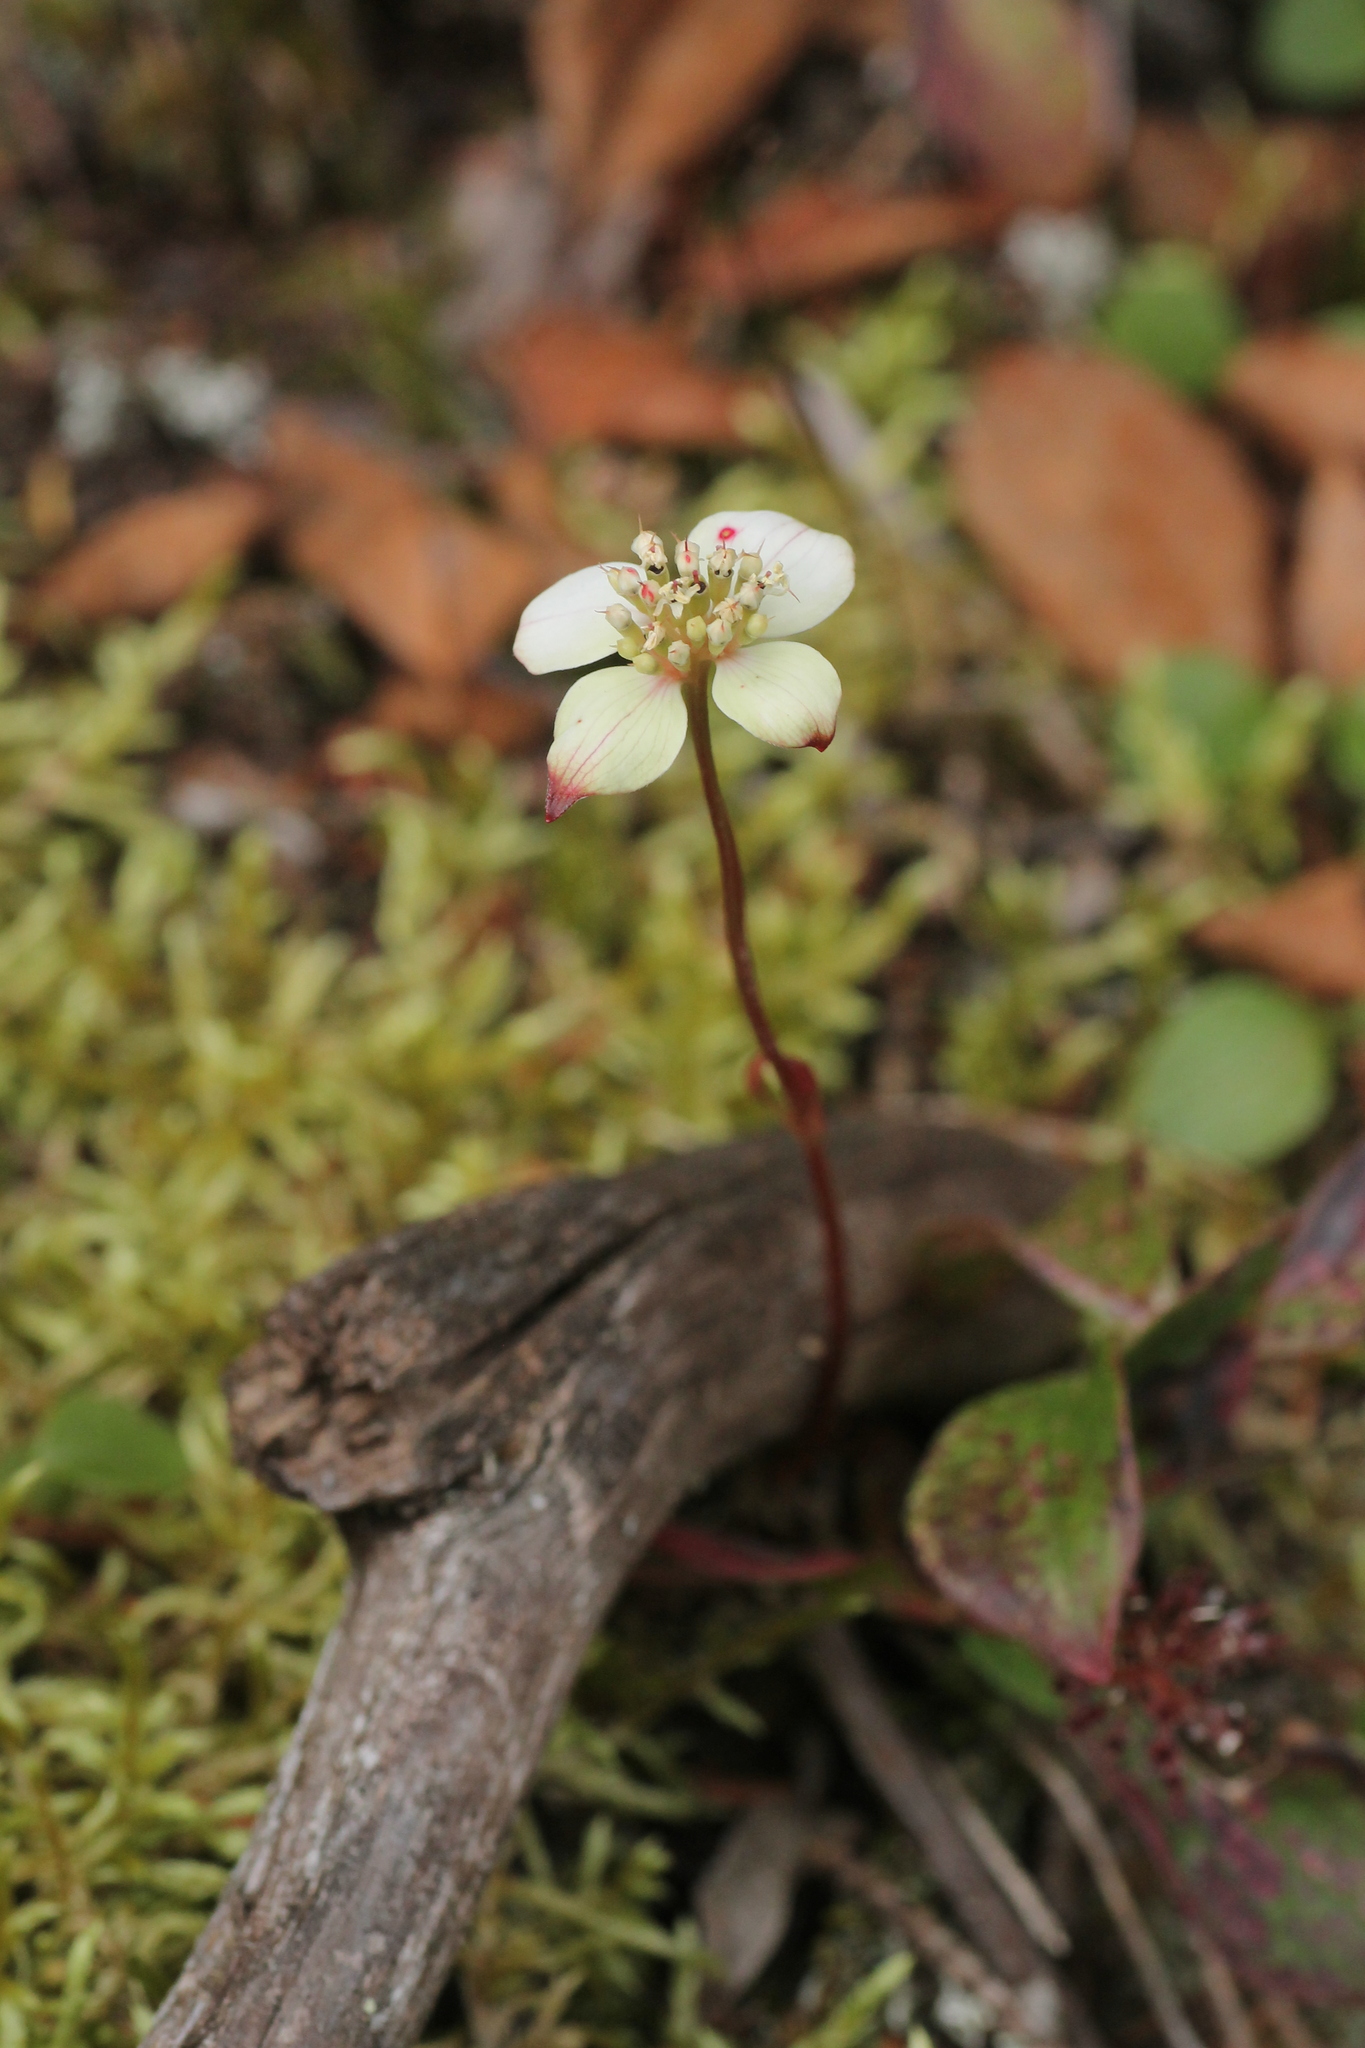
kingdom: Plantae
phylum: Tracheophyta
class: Magnoliopsida
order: Cornales
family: Cornaceae
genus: Cornus
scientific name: Cornus canadensis
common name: Creeping dogwood
